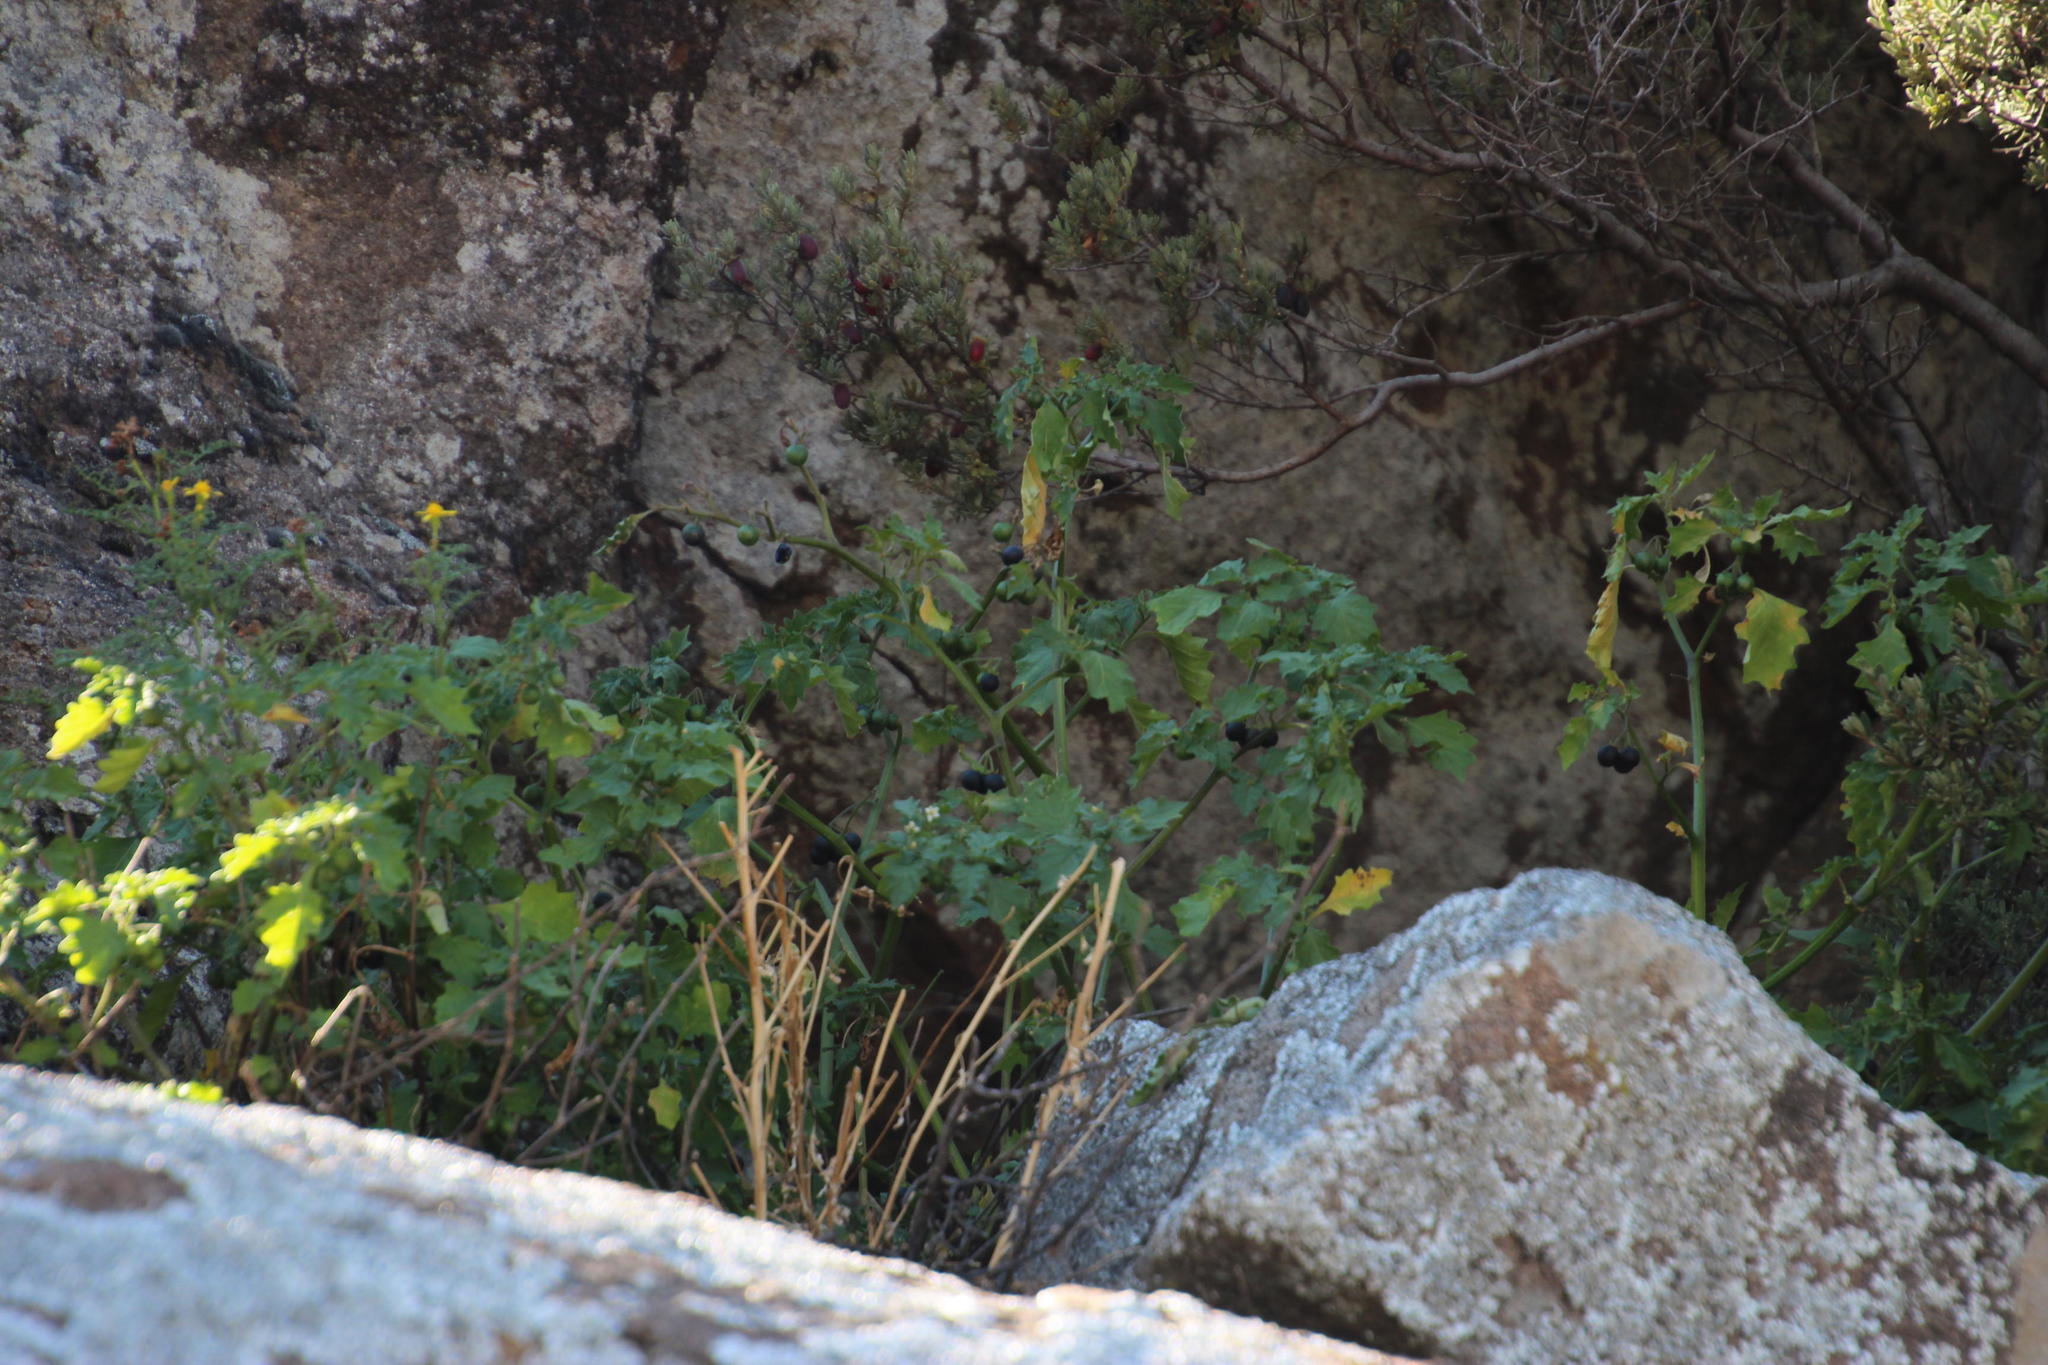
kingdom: Plantae
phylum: Tracheophyta
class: Magnoliopsida
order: Solanales
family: Solanaceae
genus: Solanum
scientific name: Solanum retroflexum
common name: Wonderberry
